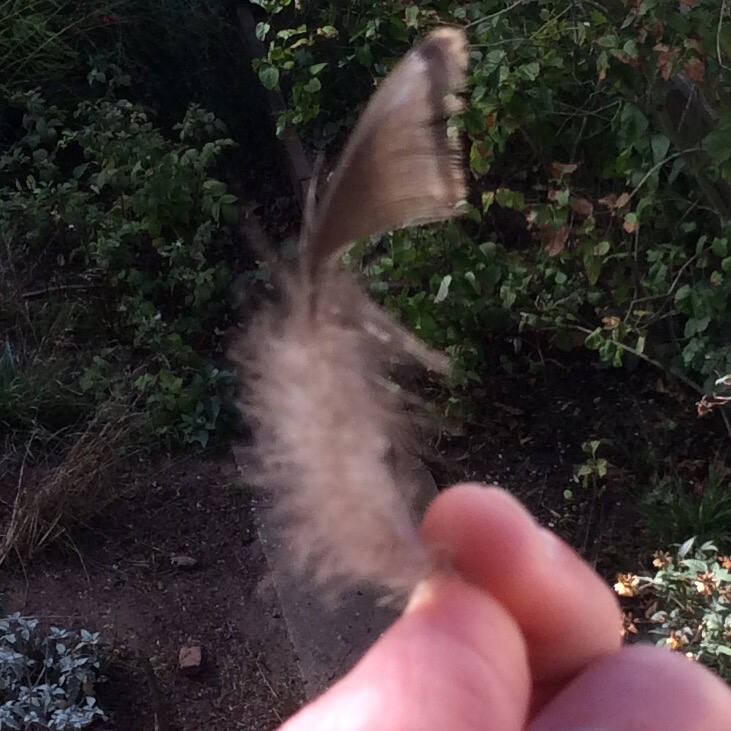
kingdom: Animalia
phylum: Chordata
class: Aves
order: Galliformes
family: Phasianidae
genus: Meleagris
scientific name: Meleagris gallopavo
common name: Wild turkey
